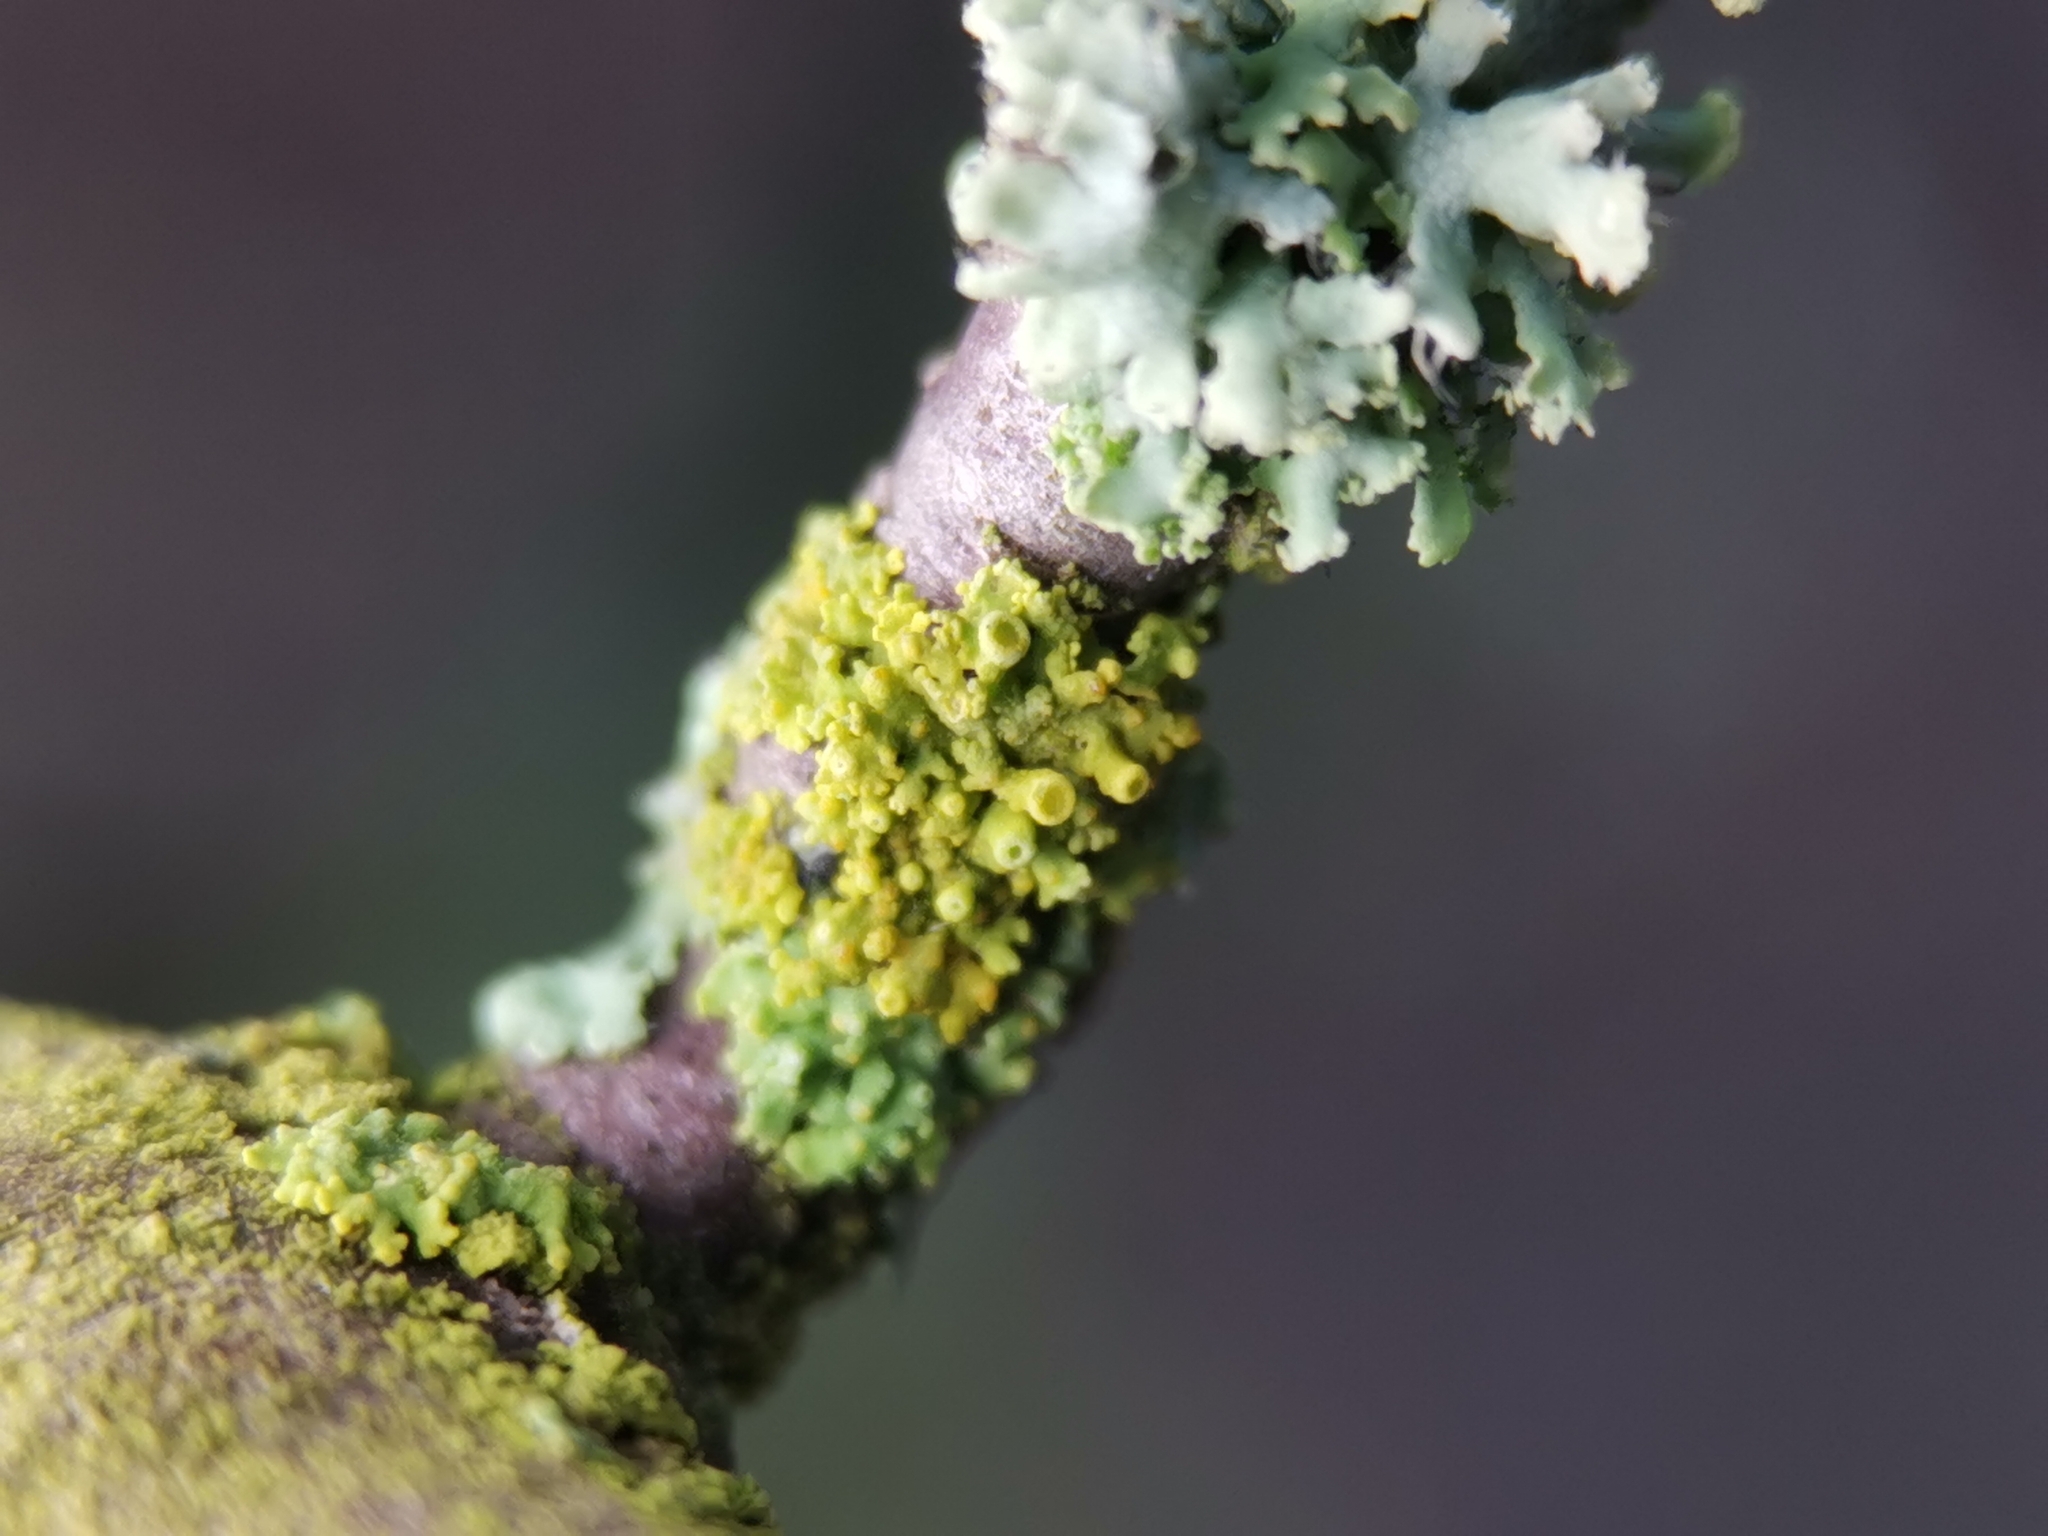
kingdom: Fungi
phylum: Ascomycota
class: Lecanoromycetes
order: Teloschistales
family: Teloschistaceae
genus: Polycauliona
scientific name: Polycauliona polycarpa
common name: Pin-cushion sunburst lichen
